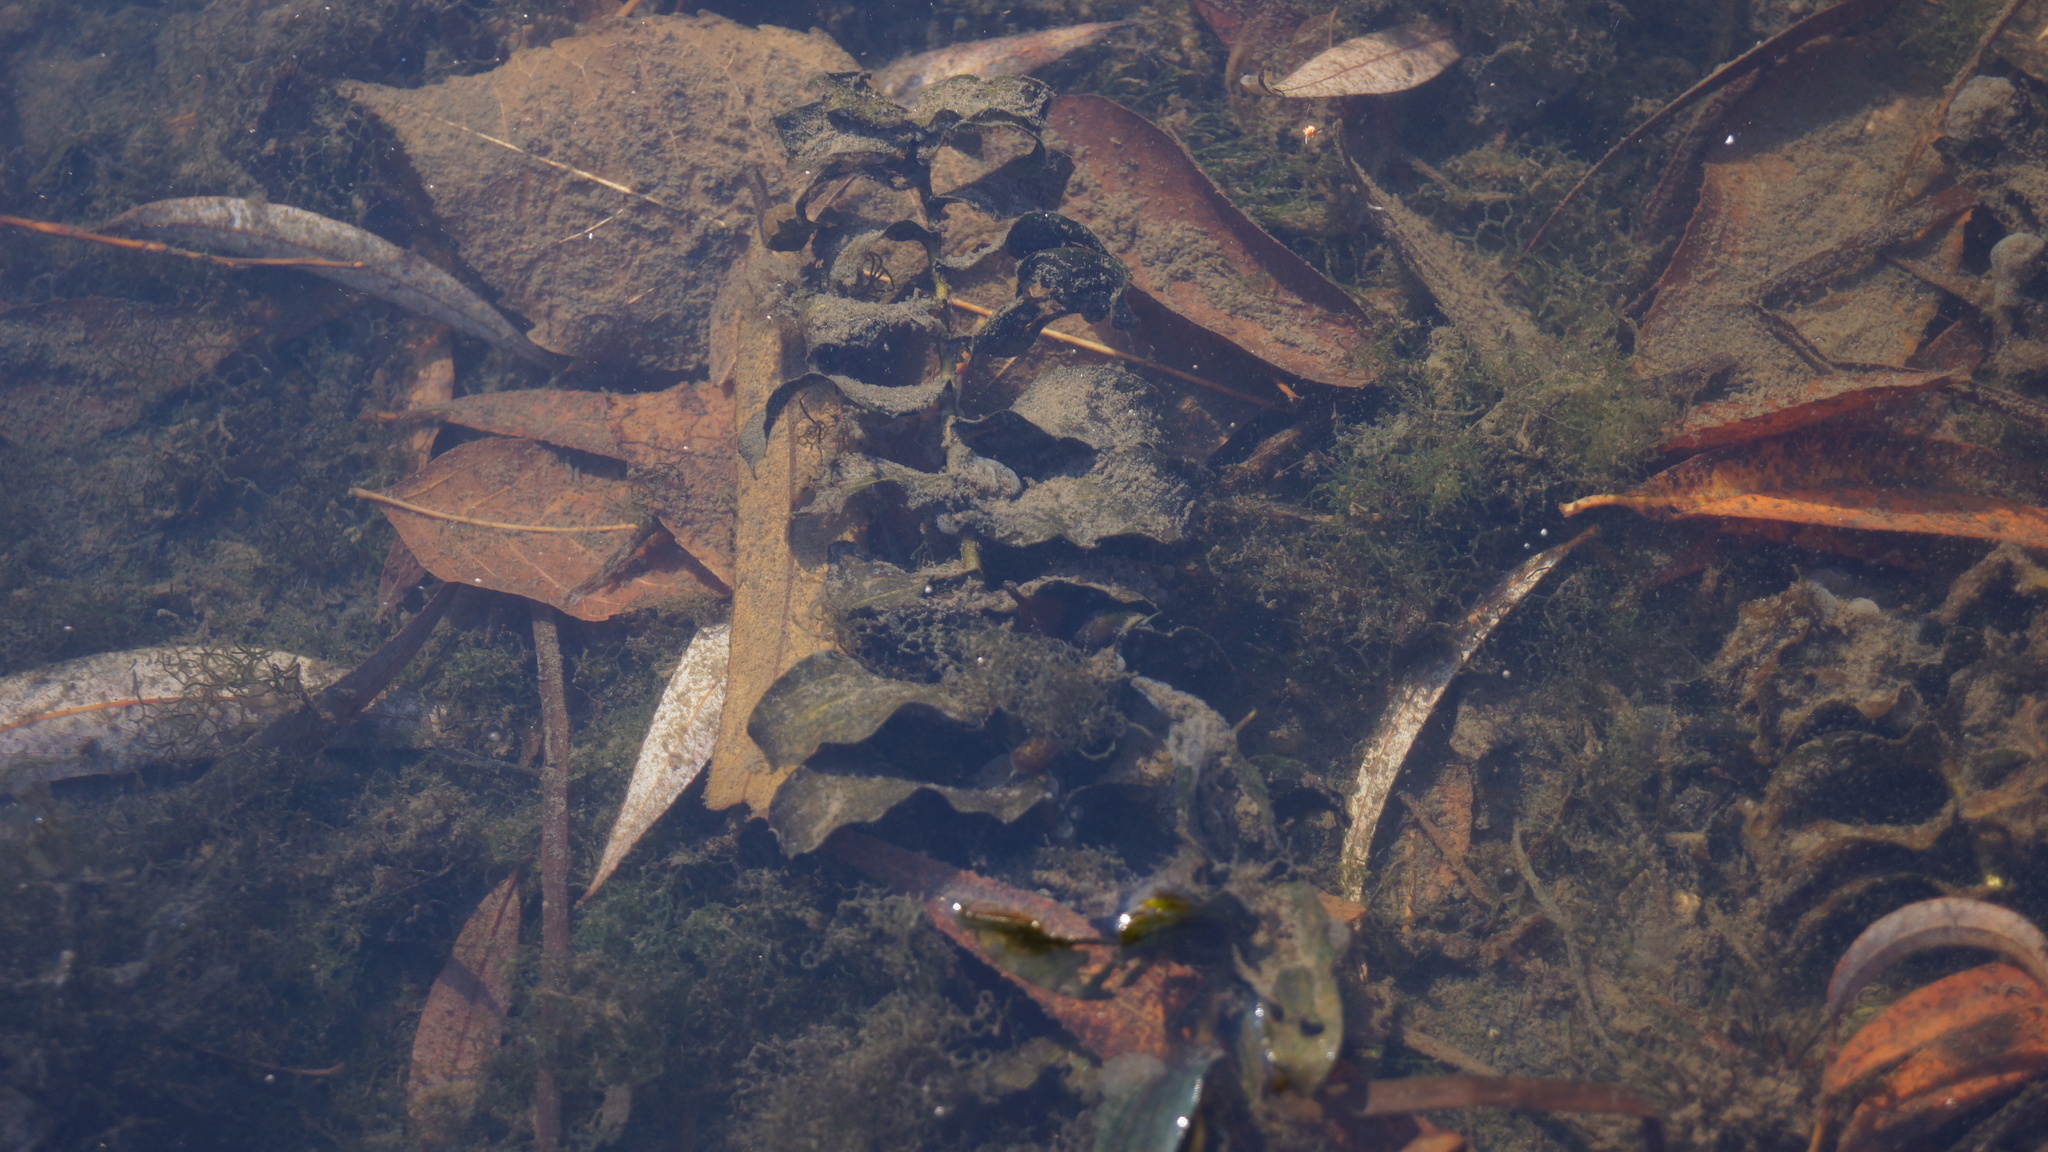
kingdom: Plantae
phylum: Tracheophyta
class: Liliopsida
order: Alismatales
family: Potamogetonaceae
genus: Potamogeton
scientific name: Potamogeton perfoliatus
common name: Perfoliate pondweed
